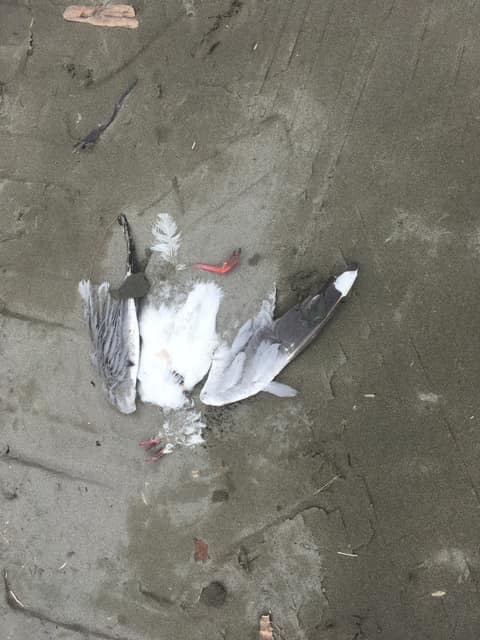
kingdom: Animalia
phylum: Chordata
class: Aves
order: Charadriiformes
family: Laridae
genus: Chroicocephalus
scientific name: Chroicocephalus novaehollandiae
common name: Silver gull
